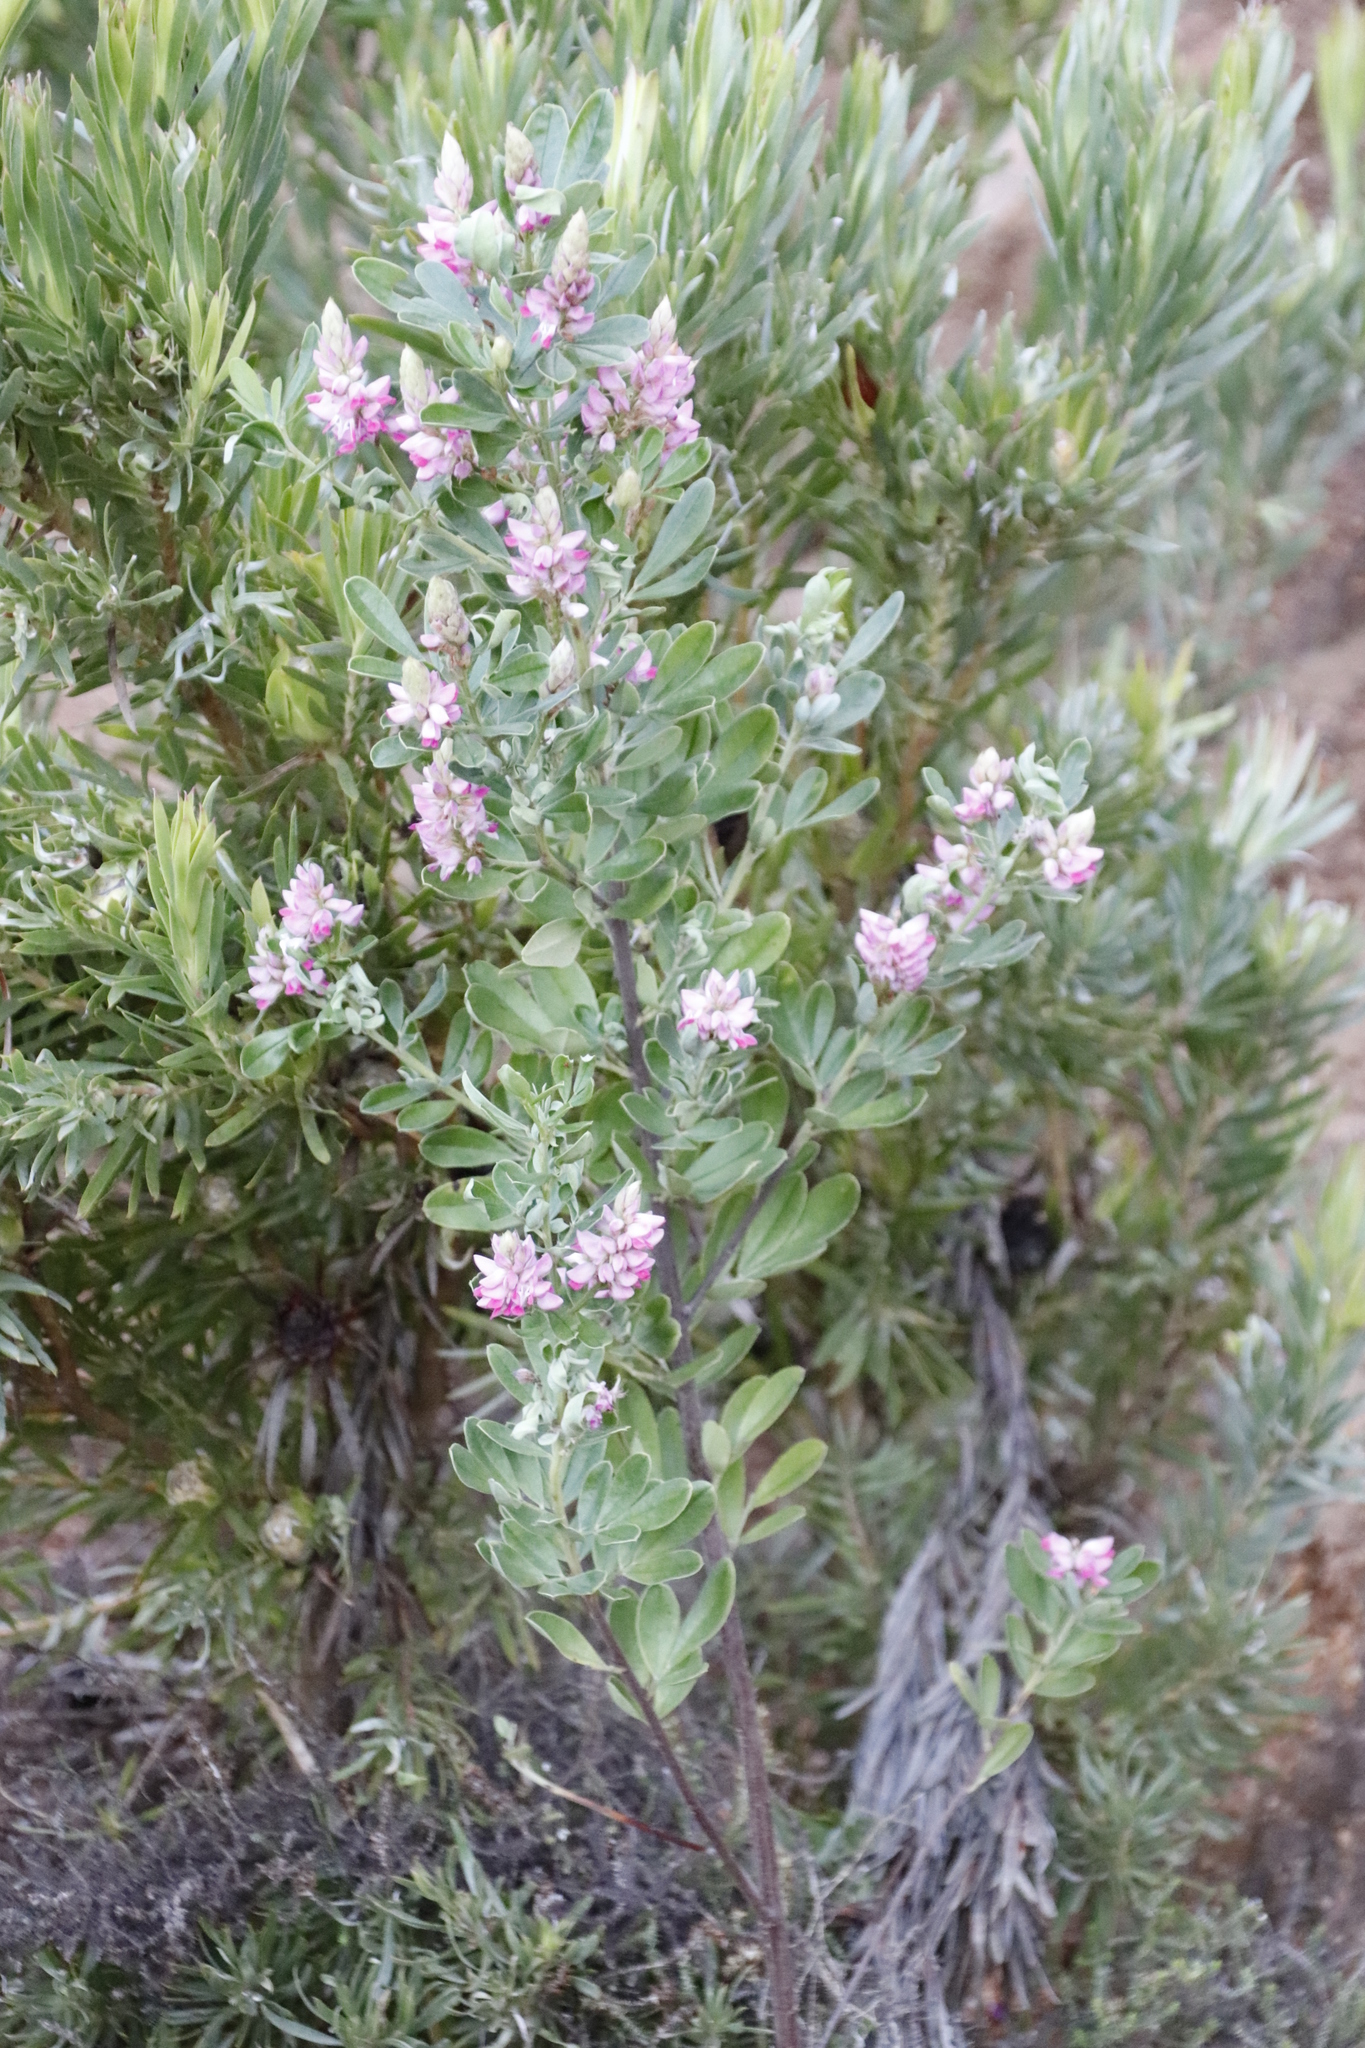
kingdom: Plantae
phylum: Tracheophyta
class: Magnoliopsida
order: Fabales
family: Fabaceae
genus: Indigofera
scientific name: Indigofera cytisoides
